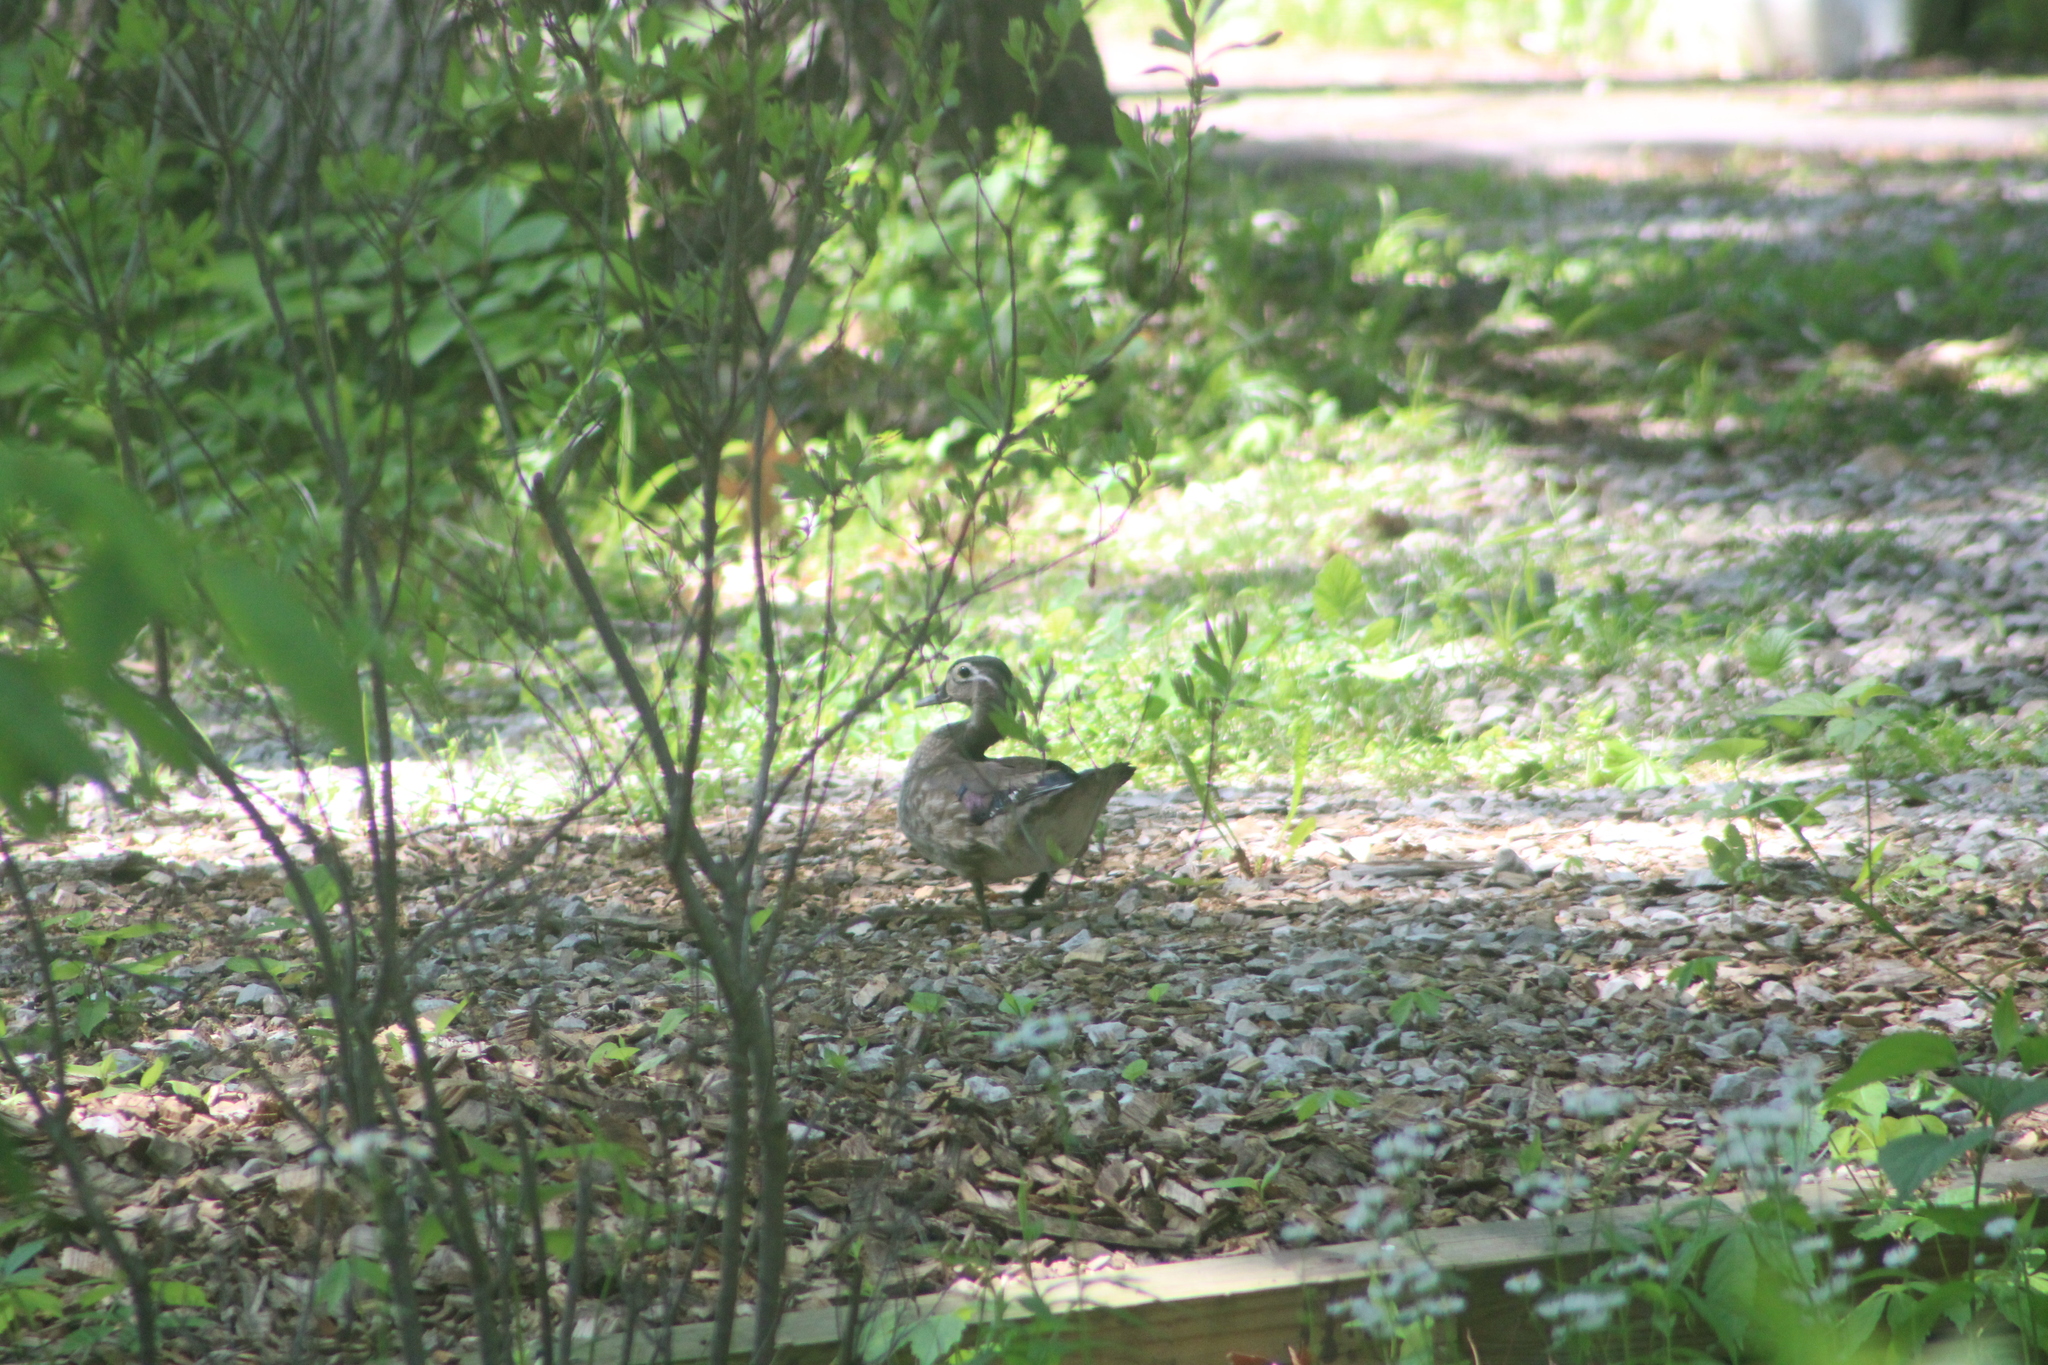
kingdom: Animalia
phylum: Chordata
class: Aves
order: Anseriformes
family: Anatidae
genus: Aix
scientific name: Aix sponsa
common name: Wood duck
